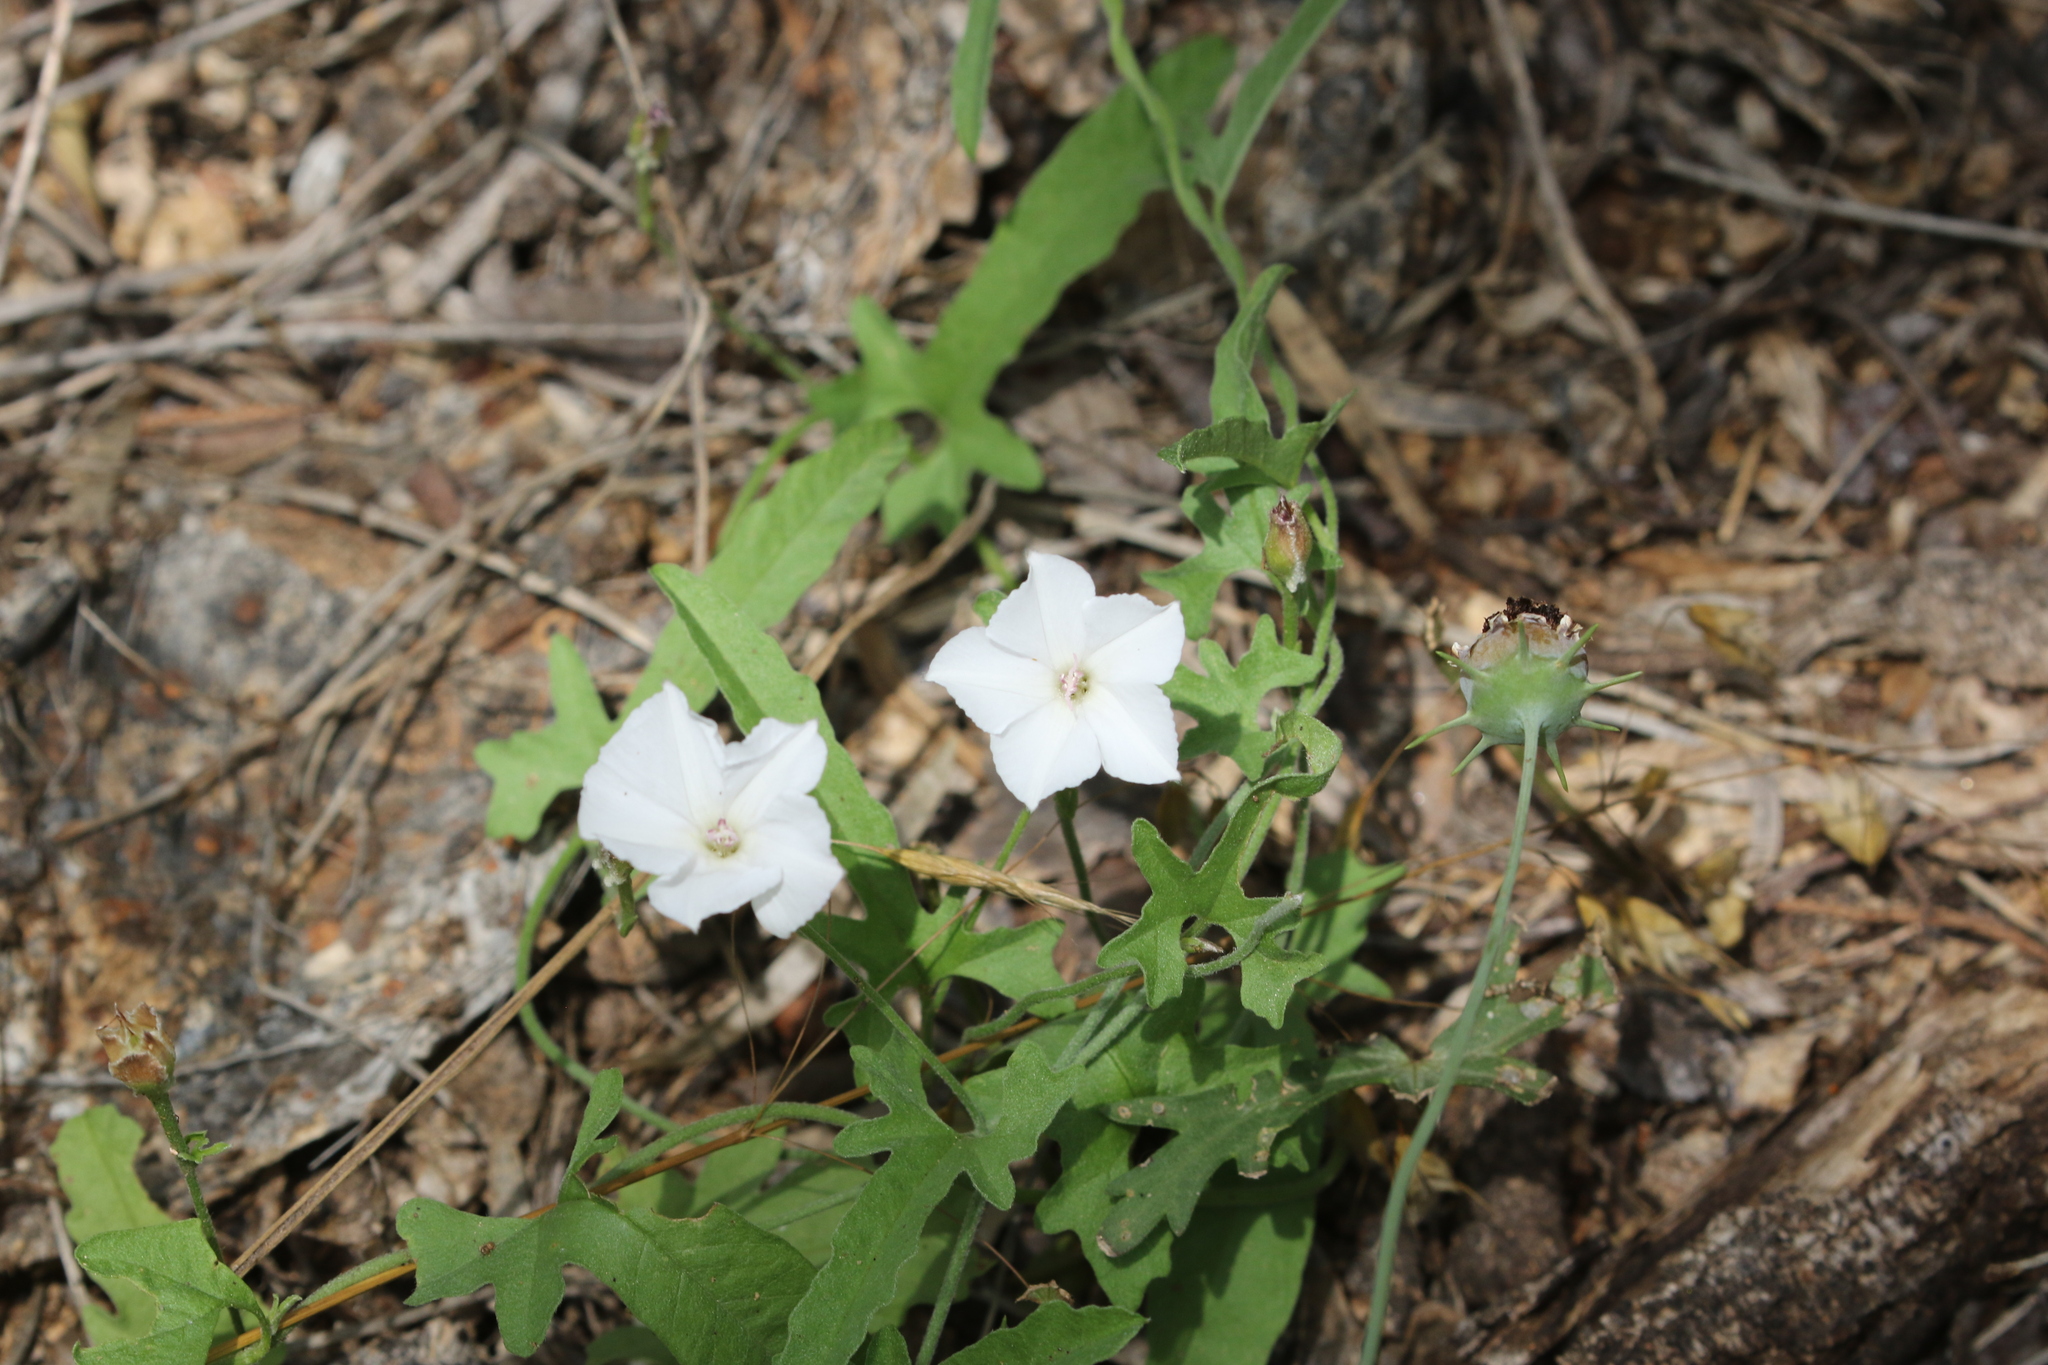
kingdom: Plantae
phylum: Tracheophyta
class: Magnoliopsida
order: Solanales
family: Convolvulaceae
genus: Convolvulus
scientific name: Convolvulus equitans
